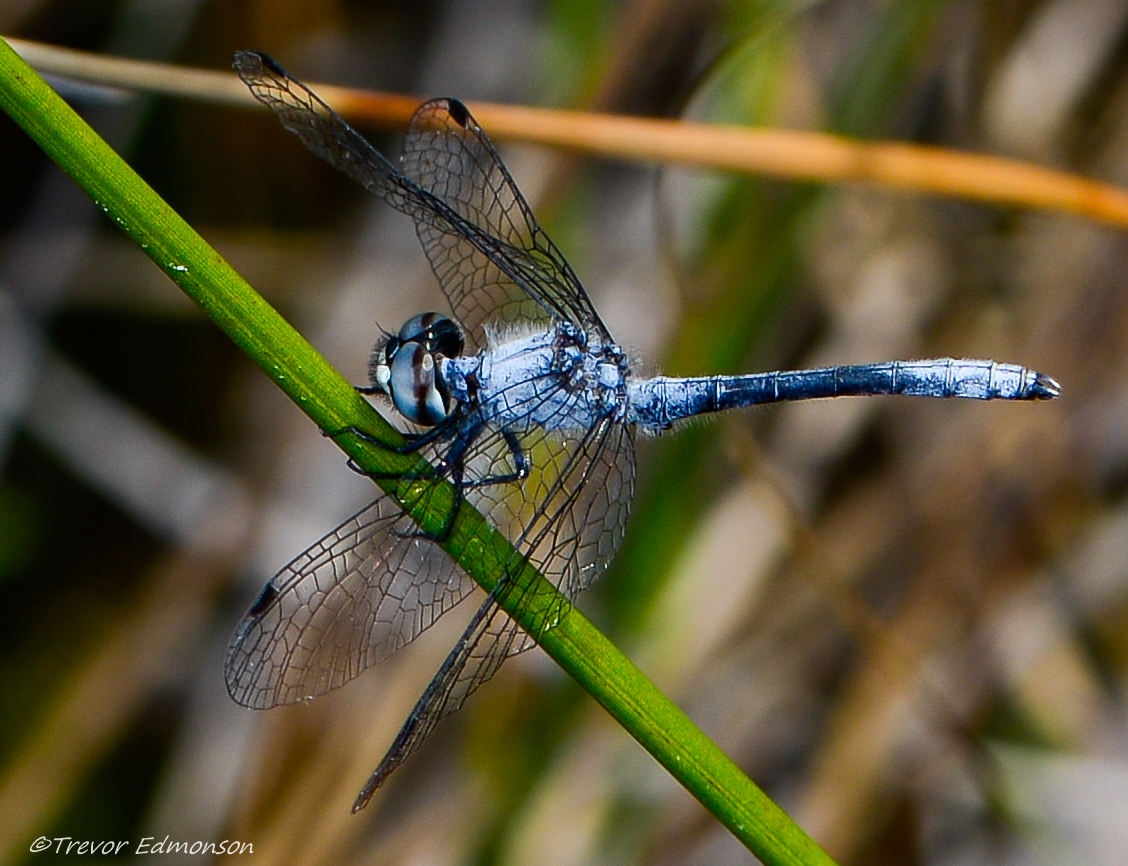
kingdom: Animalia
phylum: Arthropoda
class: Insecta
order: Odonata
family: Libellulidae
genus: Nannothemis
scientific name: Nannothemis bella
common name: Elfin skimmer
